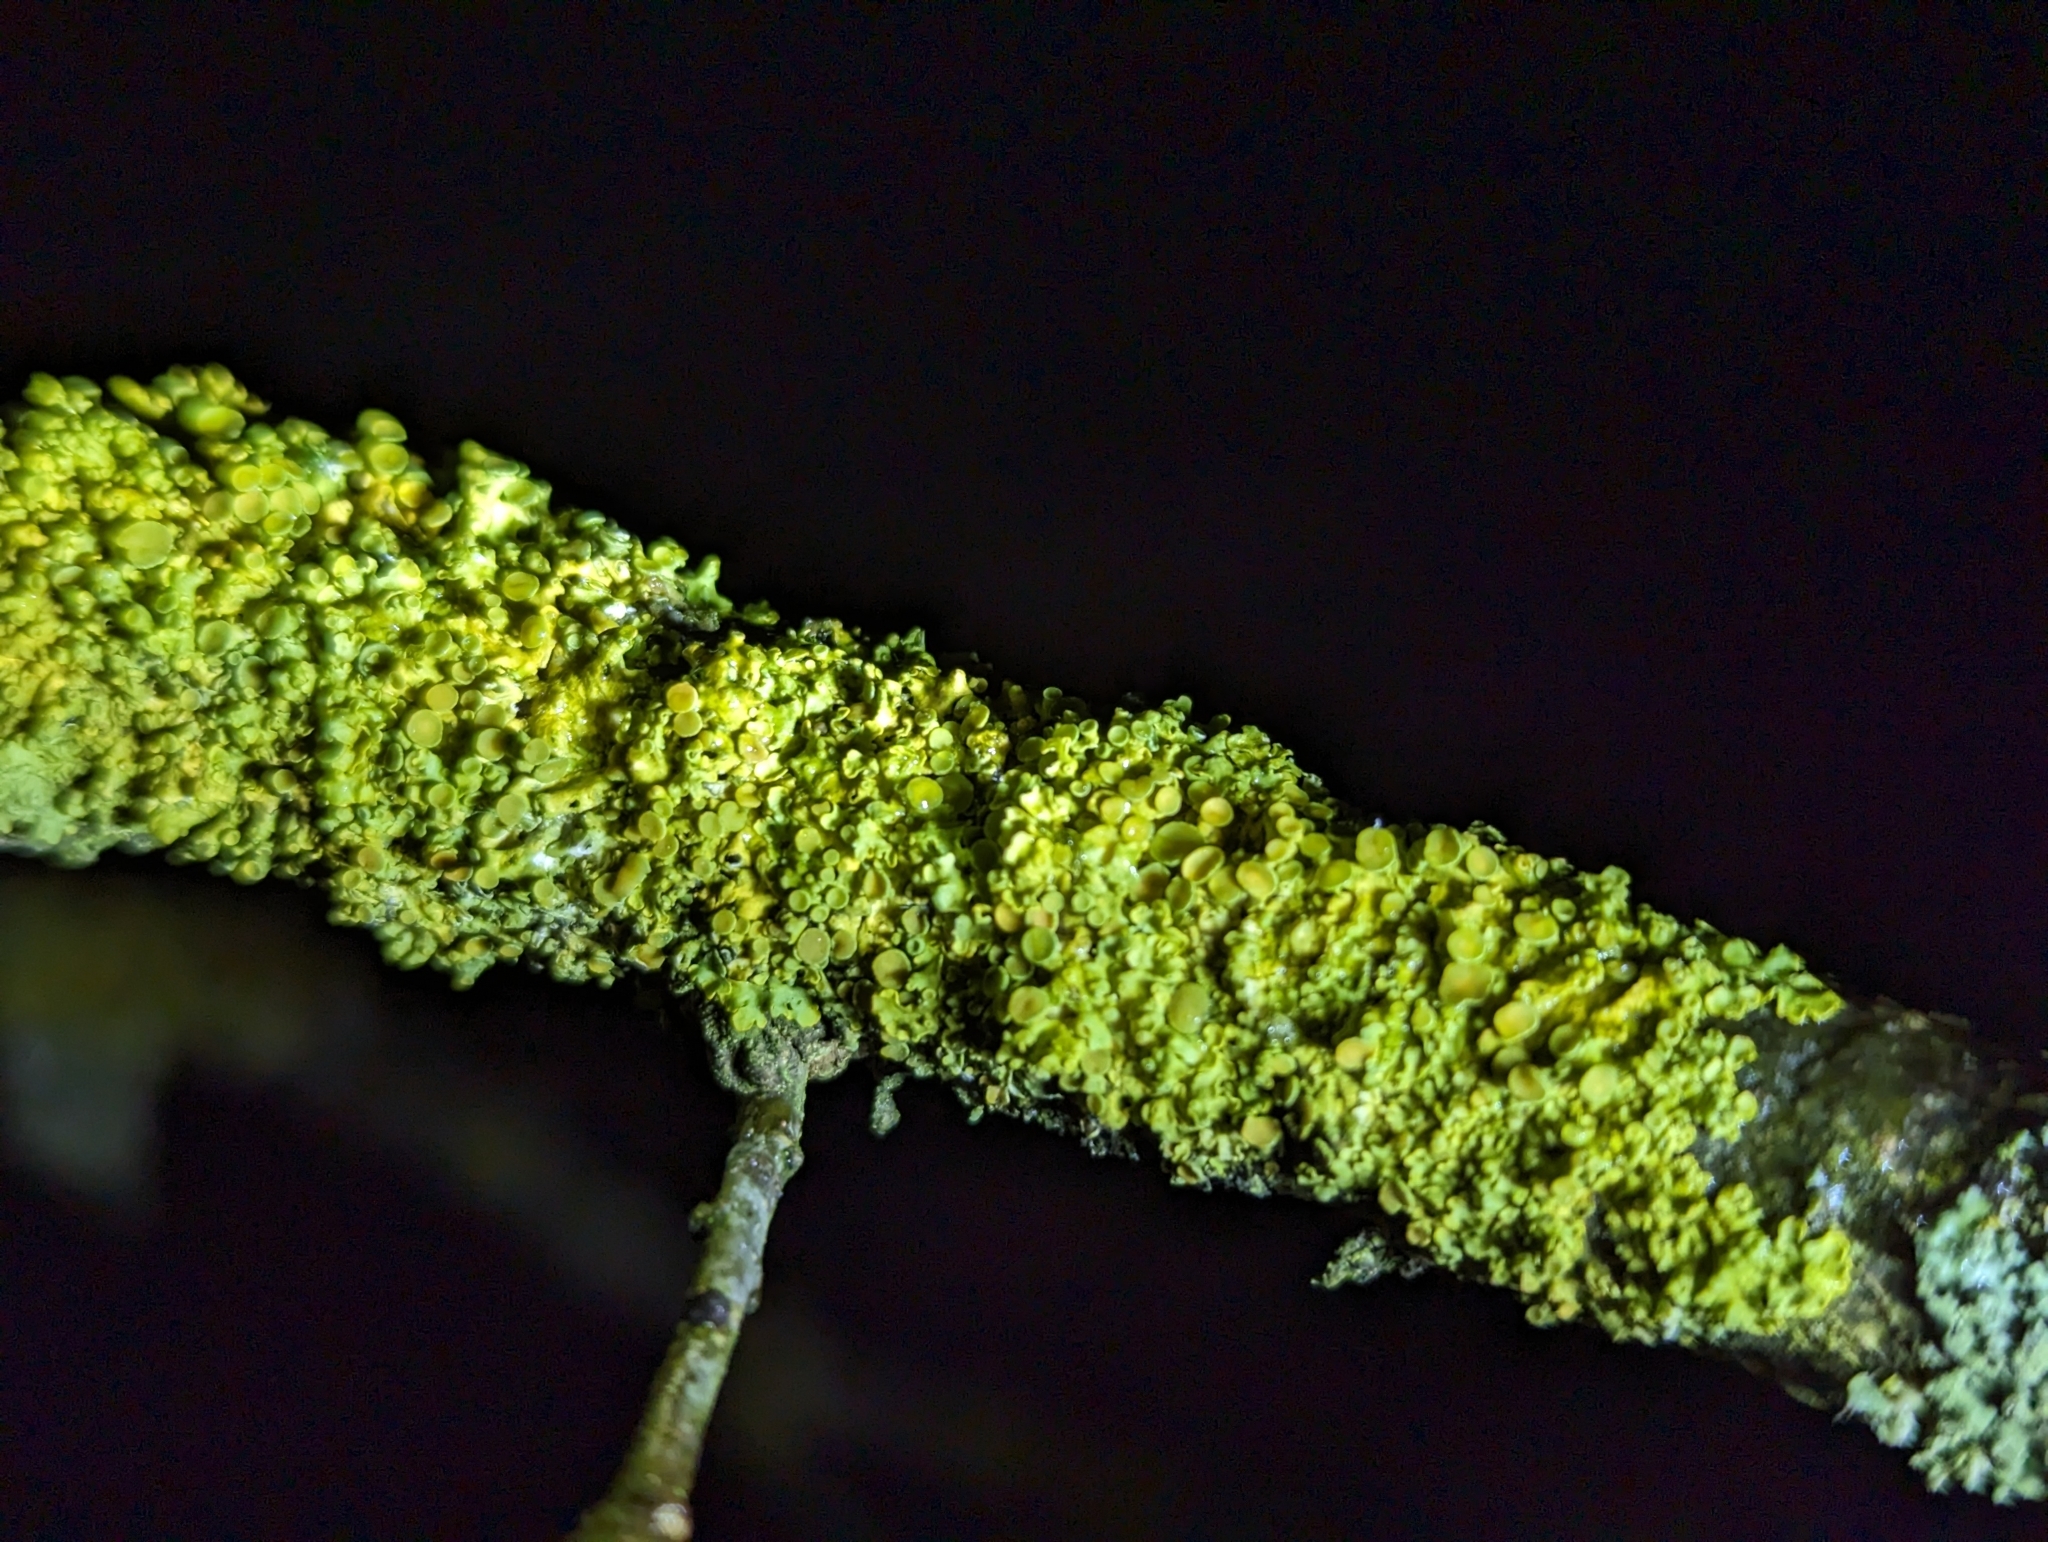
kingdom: Fungi
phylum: Ascomycota
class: Lecanoromycetes
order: Teloschistales
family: Teloschistaceae
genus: Xanthoria
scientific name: Xanthoria parietina
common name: Common orange lichen
